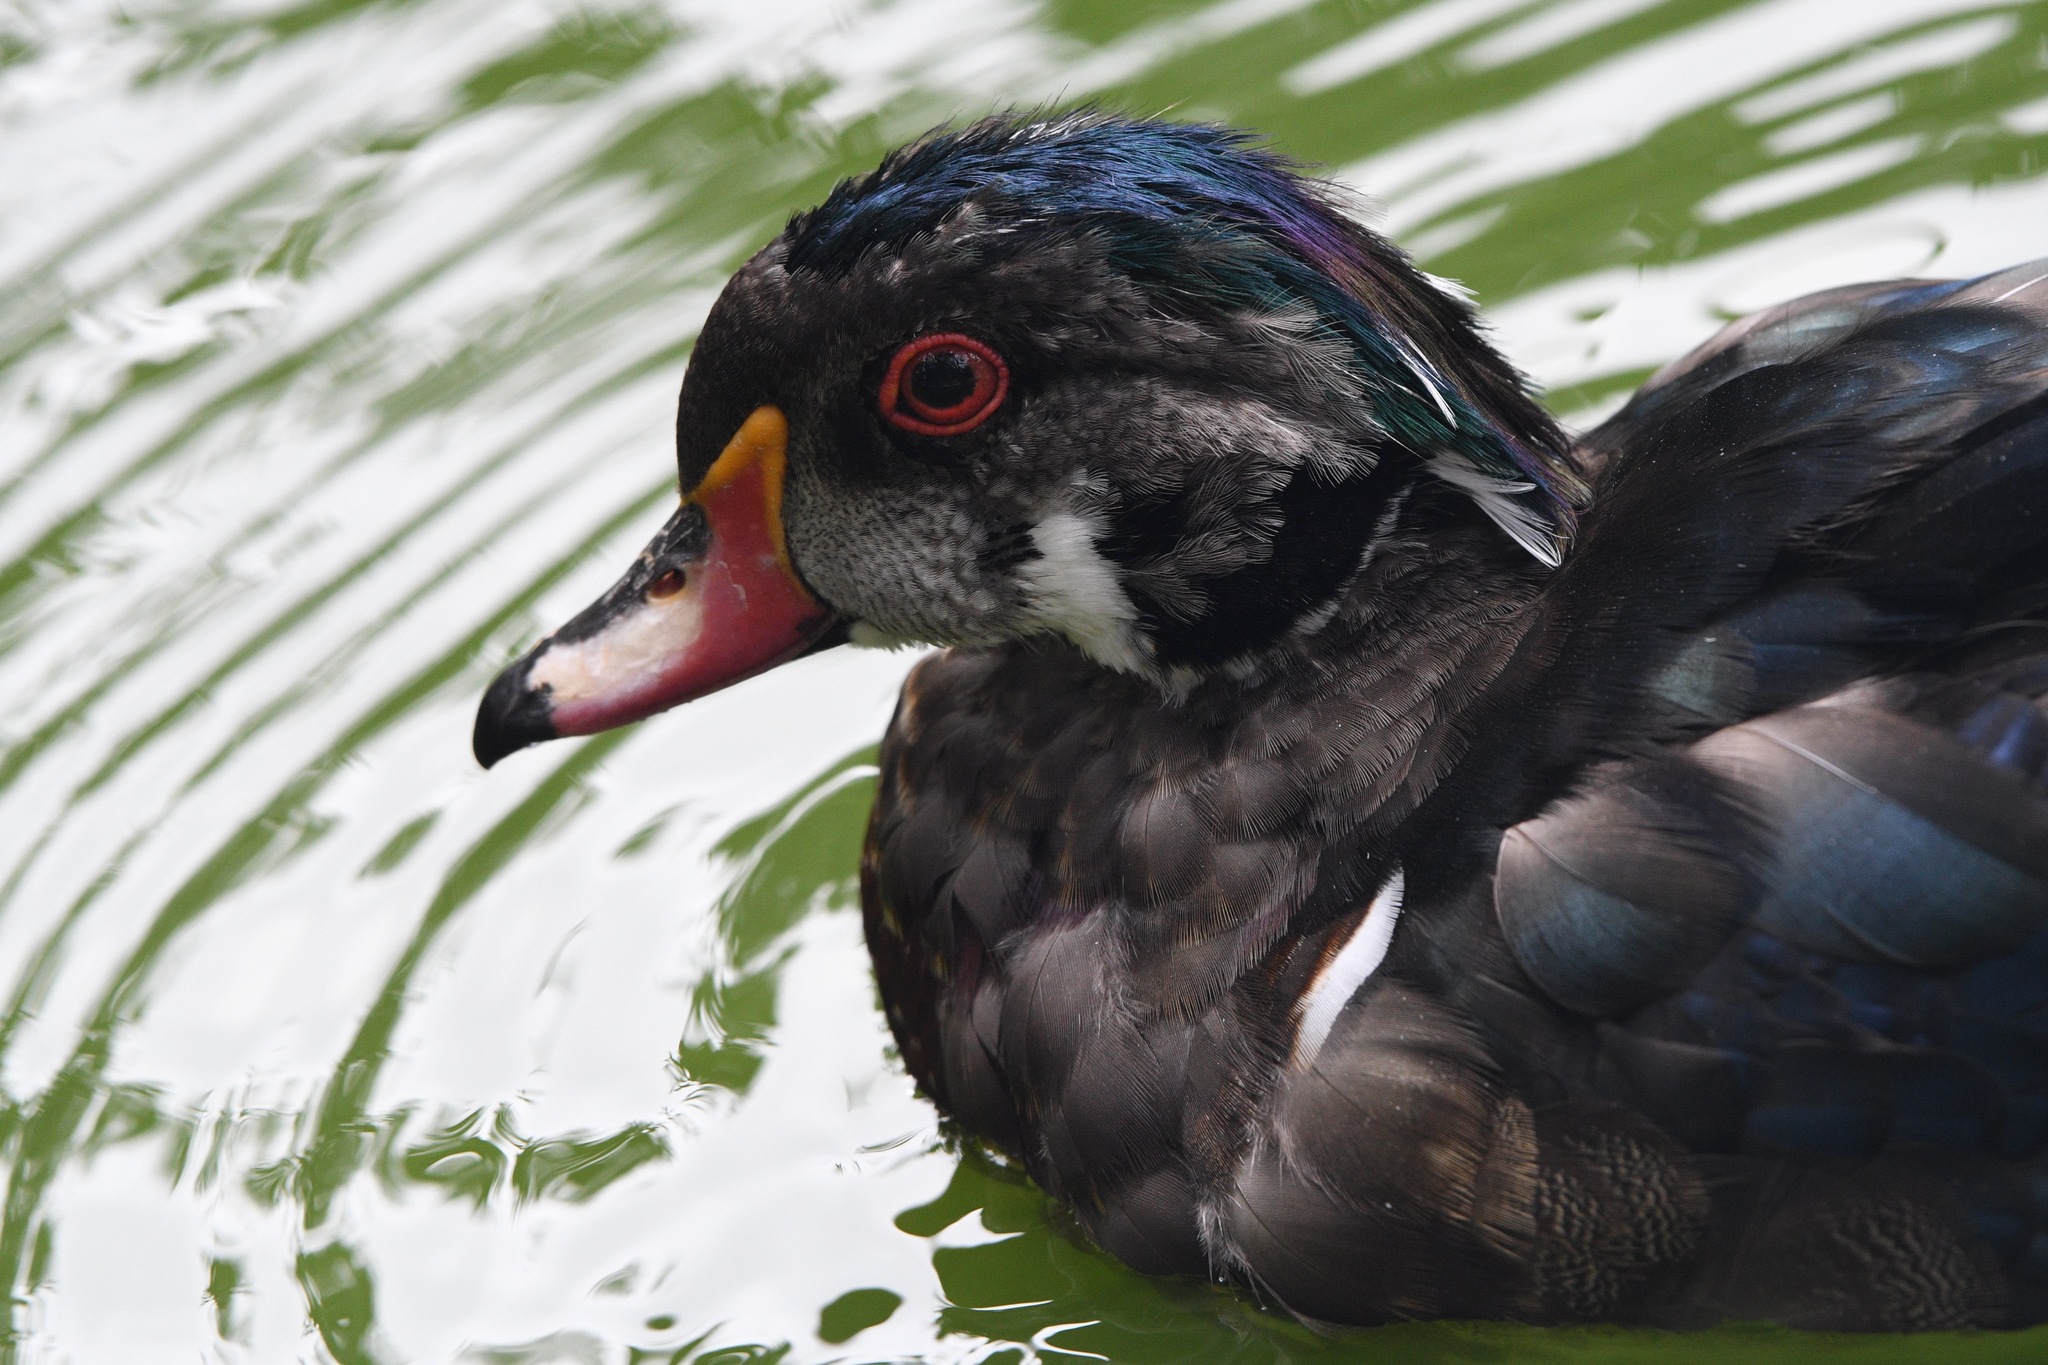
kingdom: Animalia
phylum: Chordata
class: Aves
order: Anseriformes
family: Anatidae
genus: Aix
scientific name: Aix sponsa
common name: Wood duck
